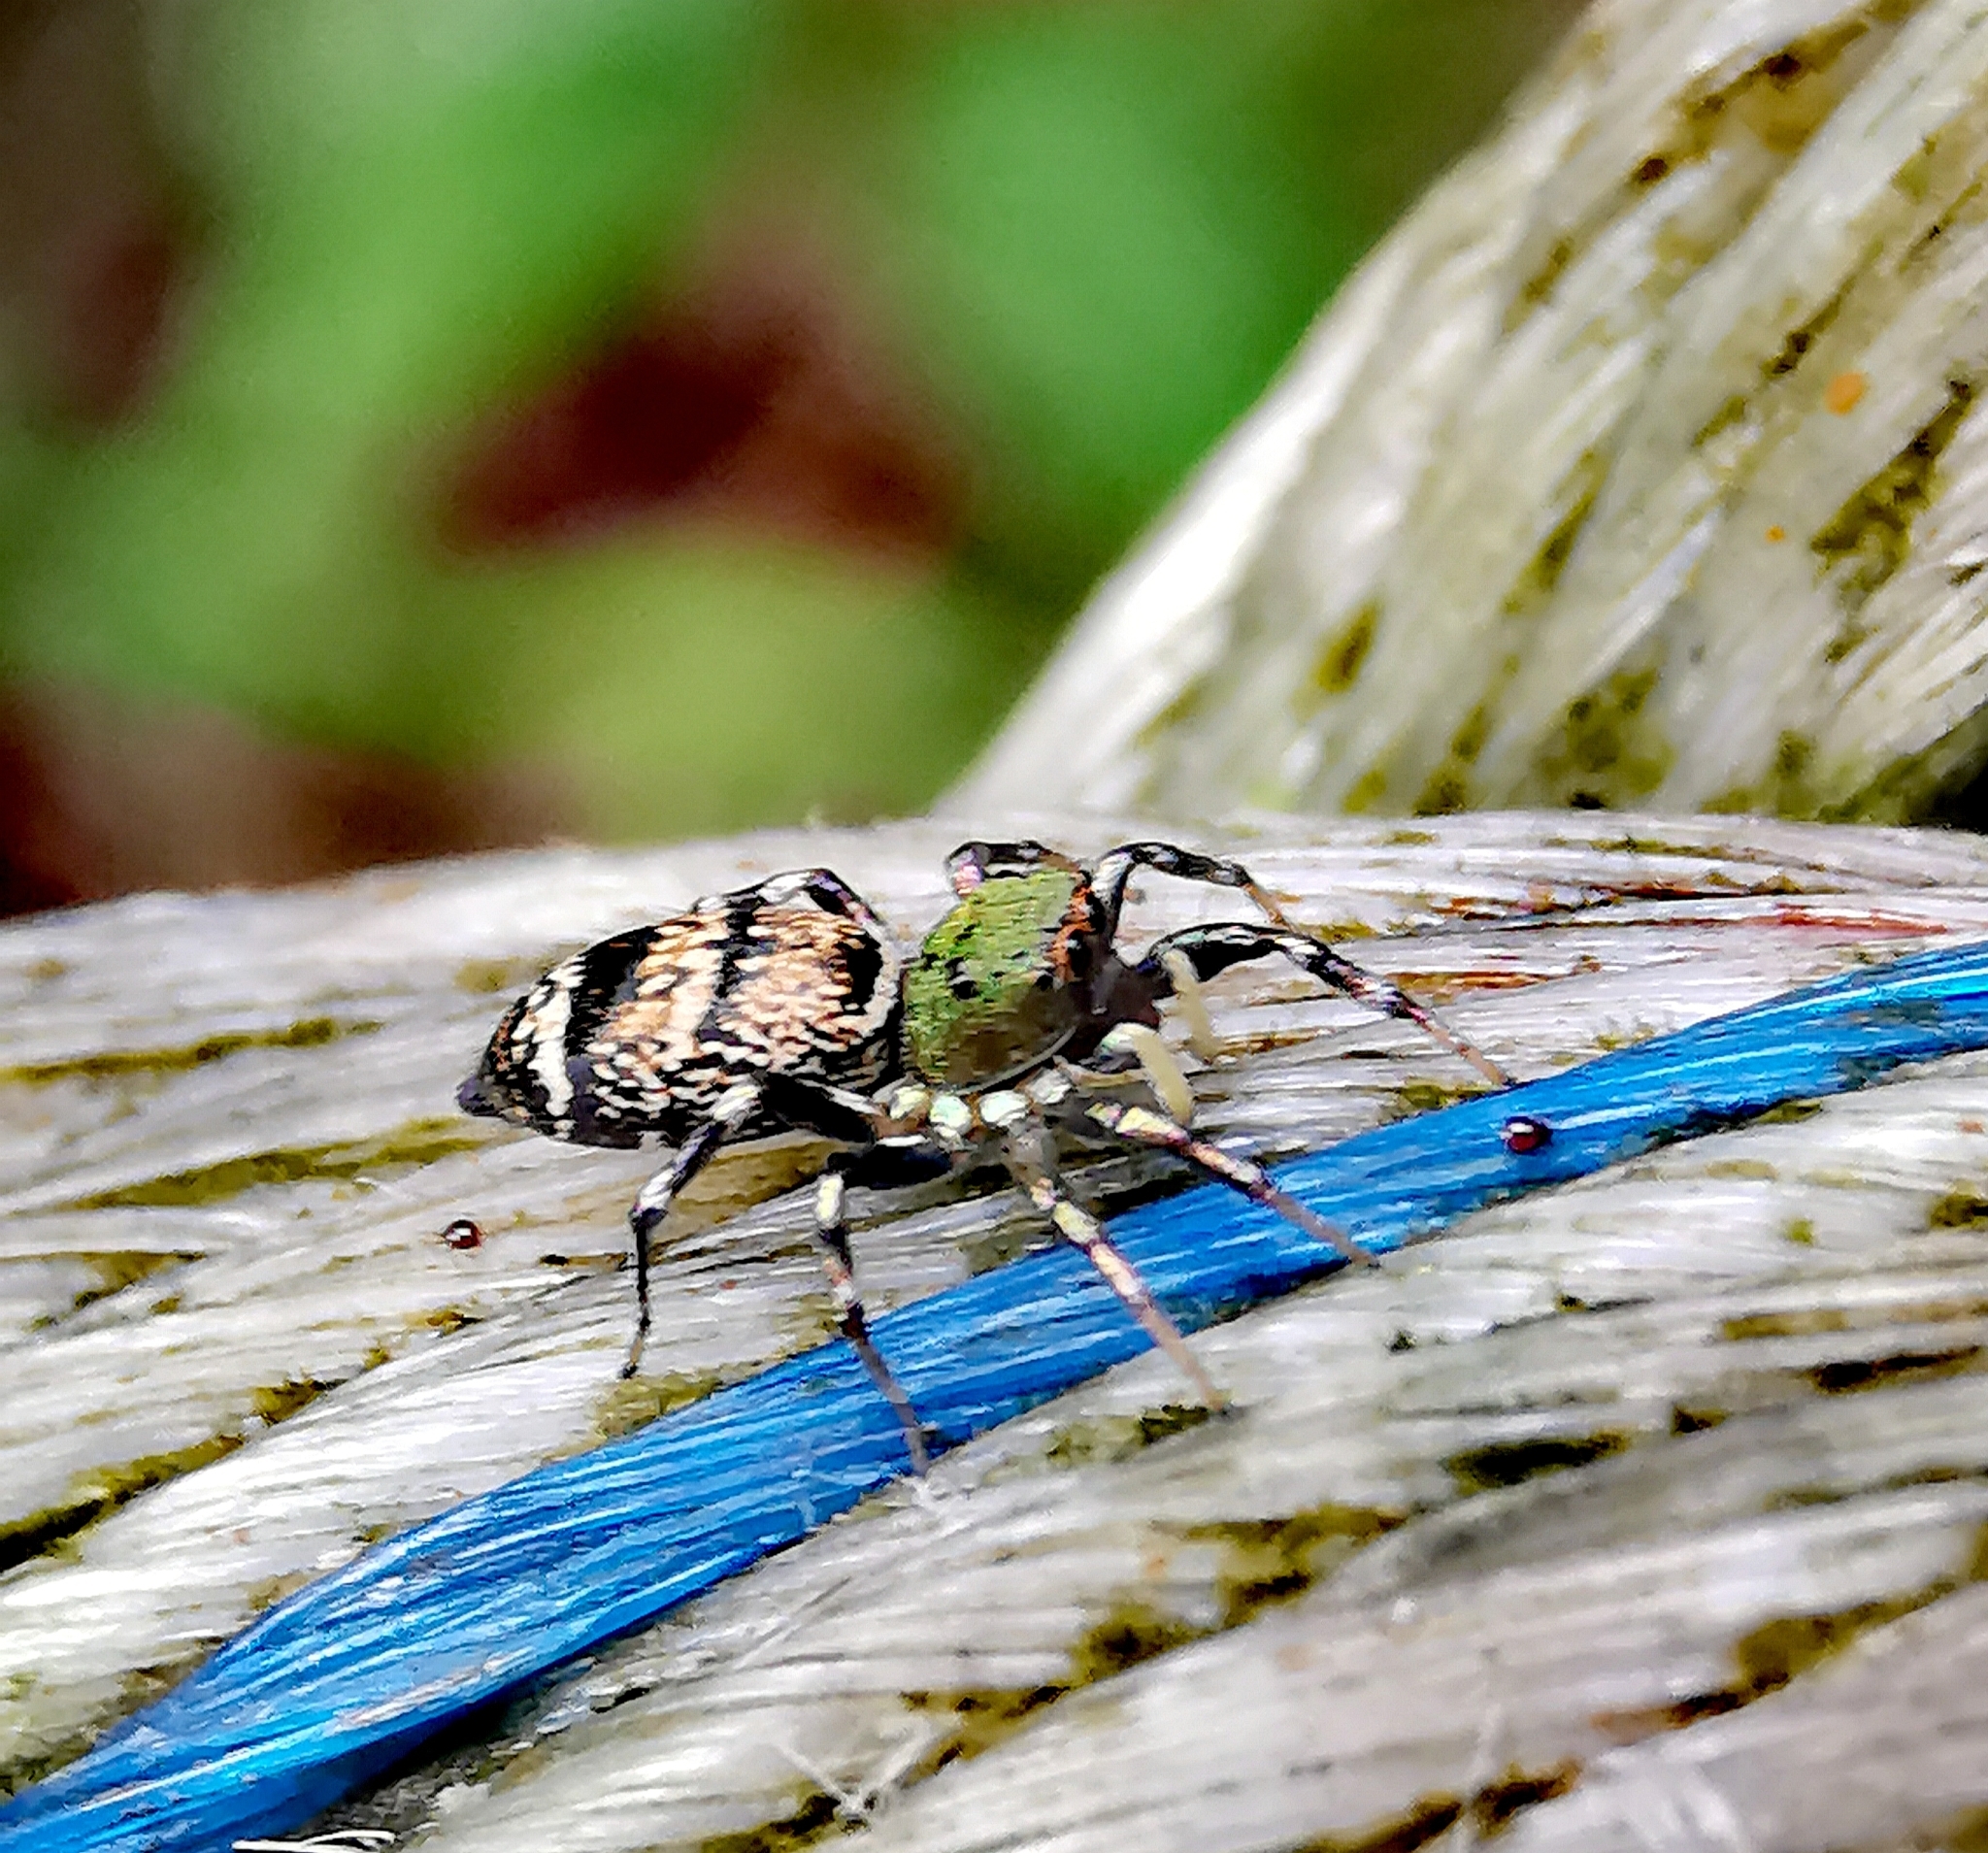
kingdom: Animalia
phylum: Arthropoda
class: Arachnida
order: Araneae
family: Salticidae
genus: Cosmophasis
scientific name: Cosmophasis thalassina
